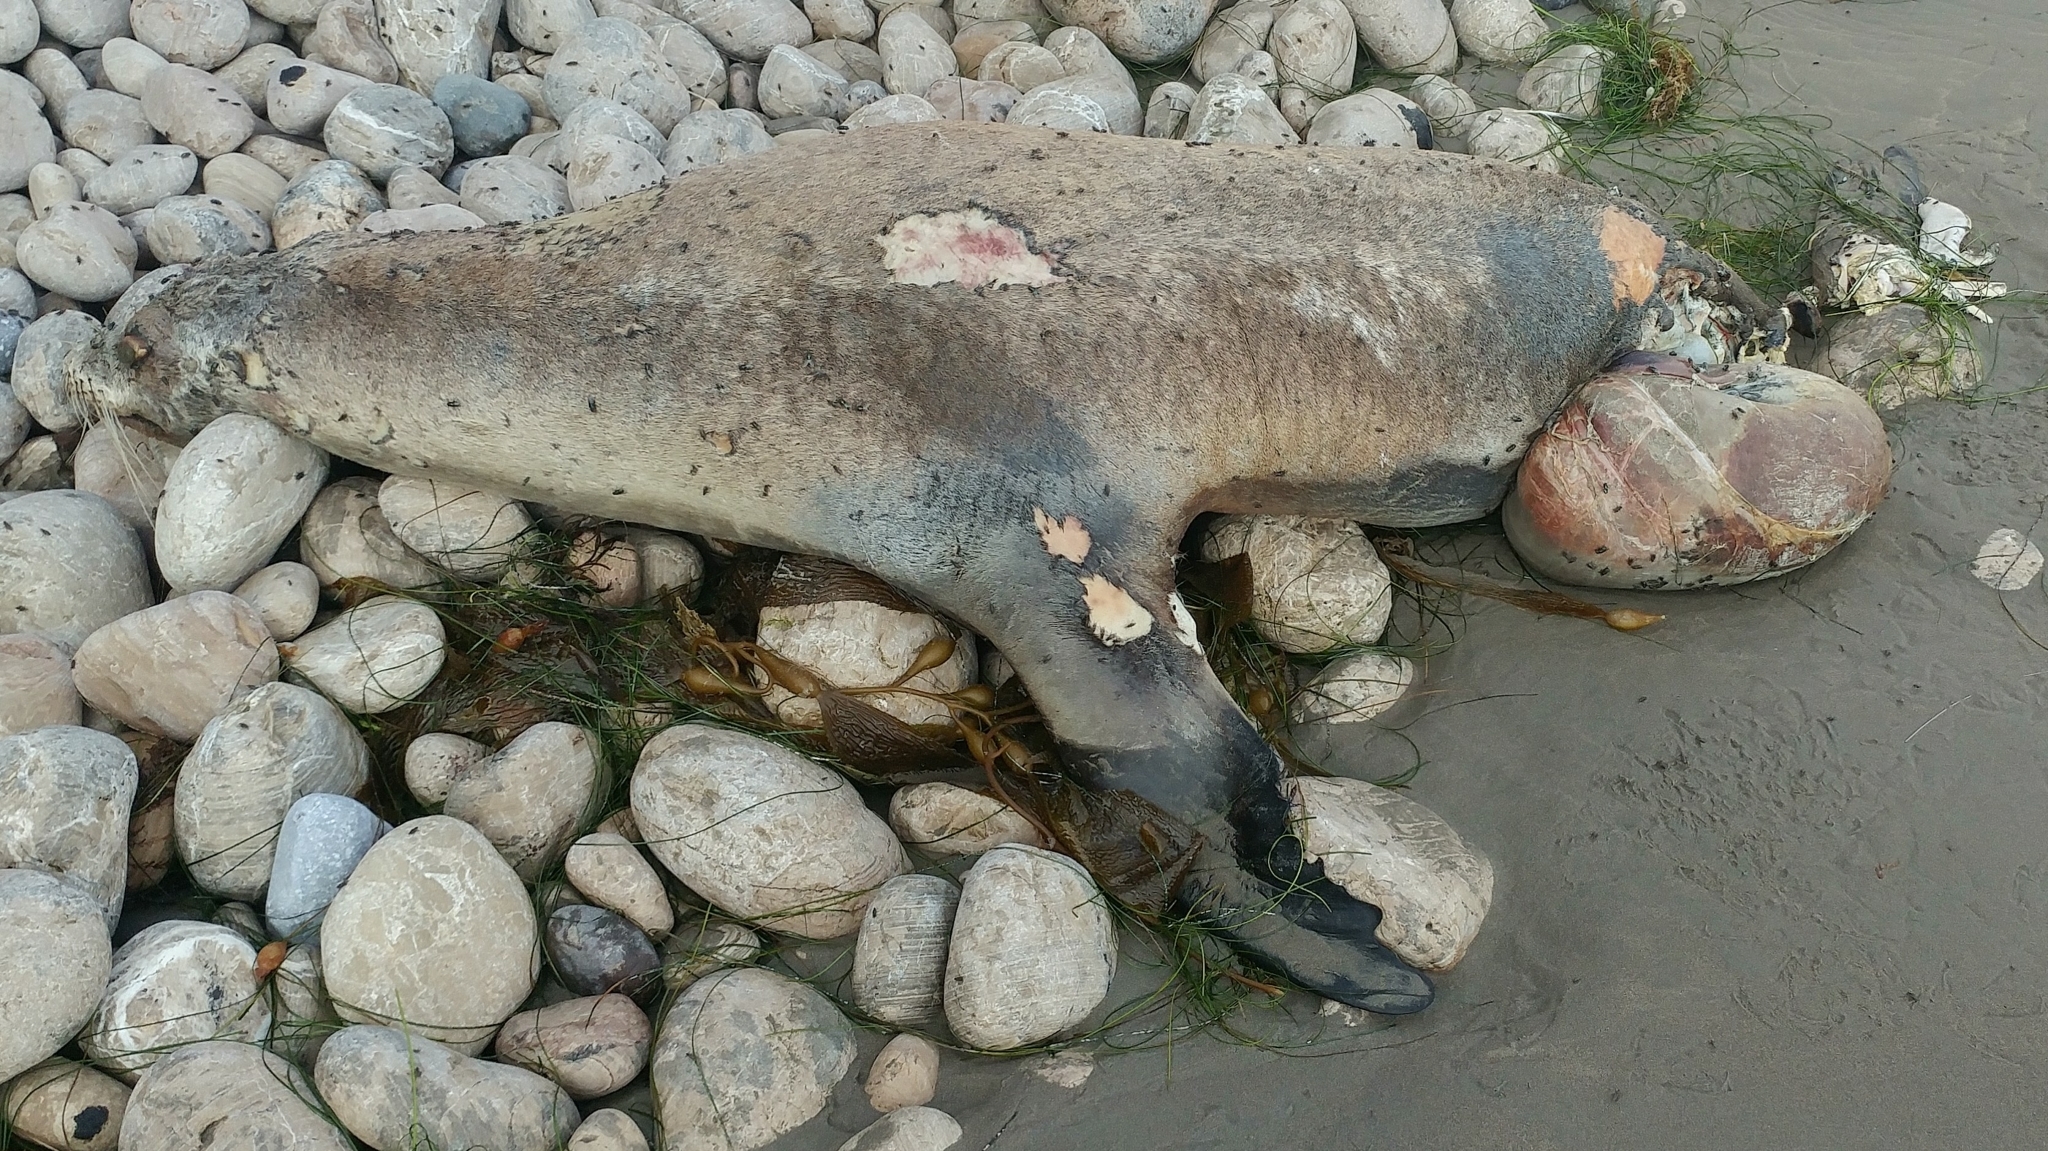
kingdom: Animalia
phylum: Chordata
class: Mammalia
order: Carnivora
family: Otariidae
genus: Zalophus
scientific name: Zalophus californianus
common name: California sea lion
